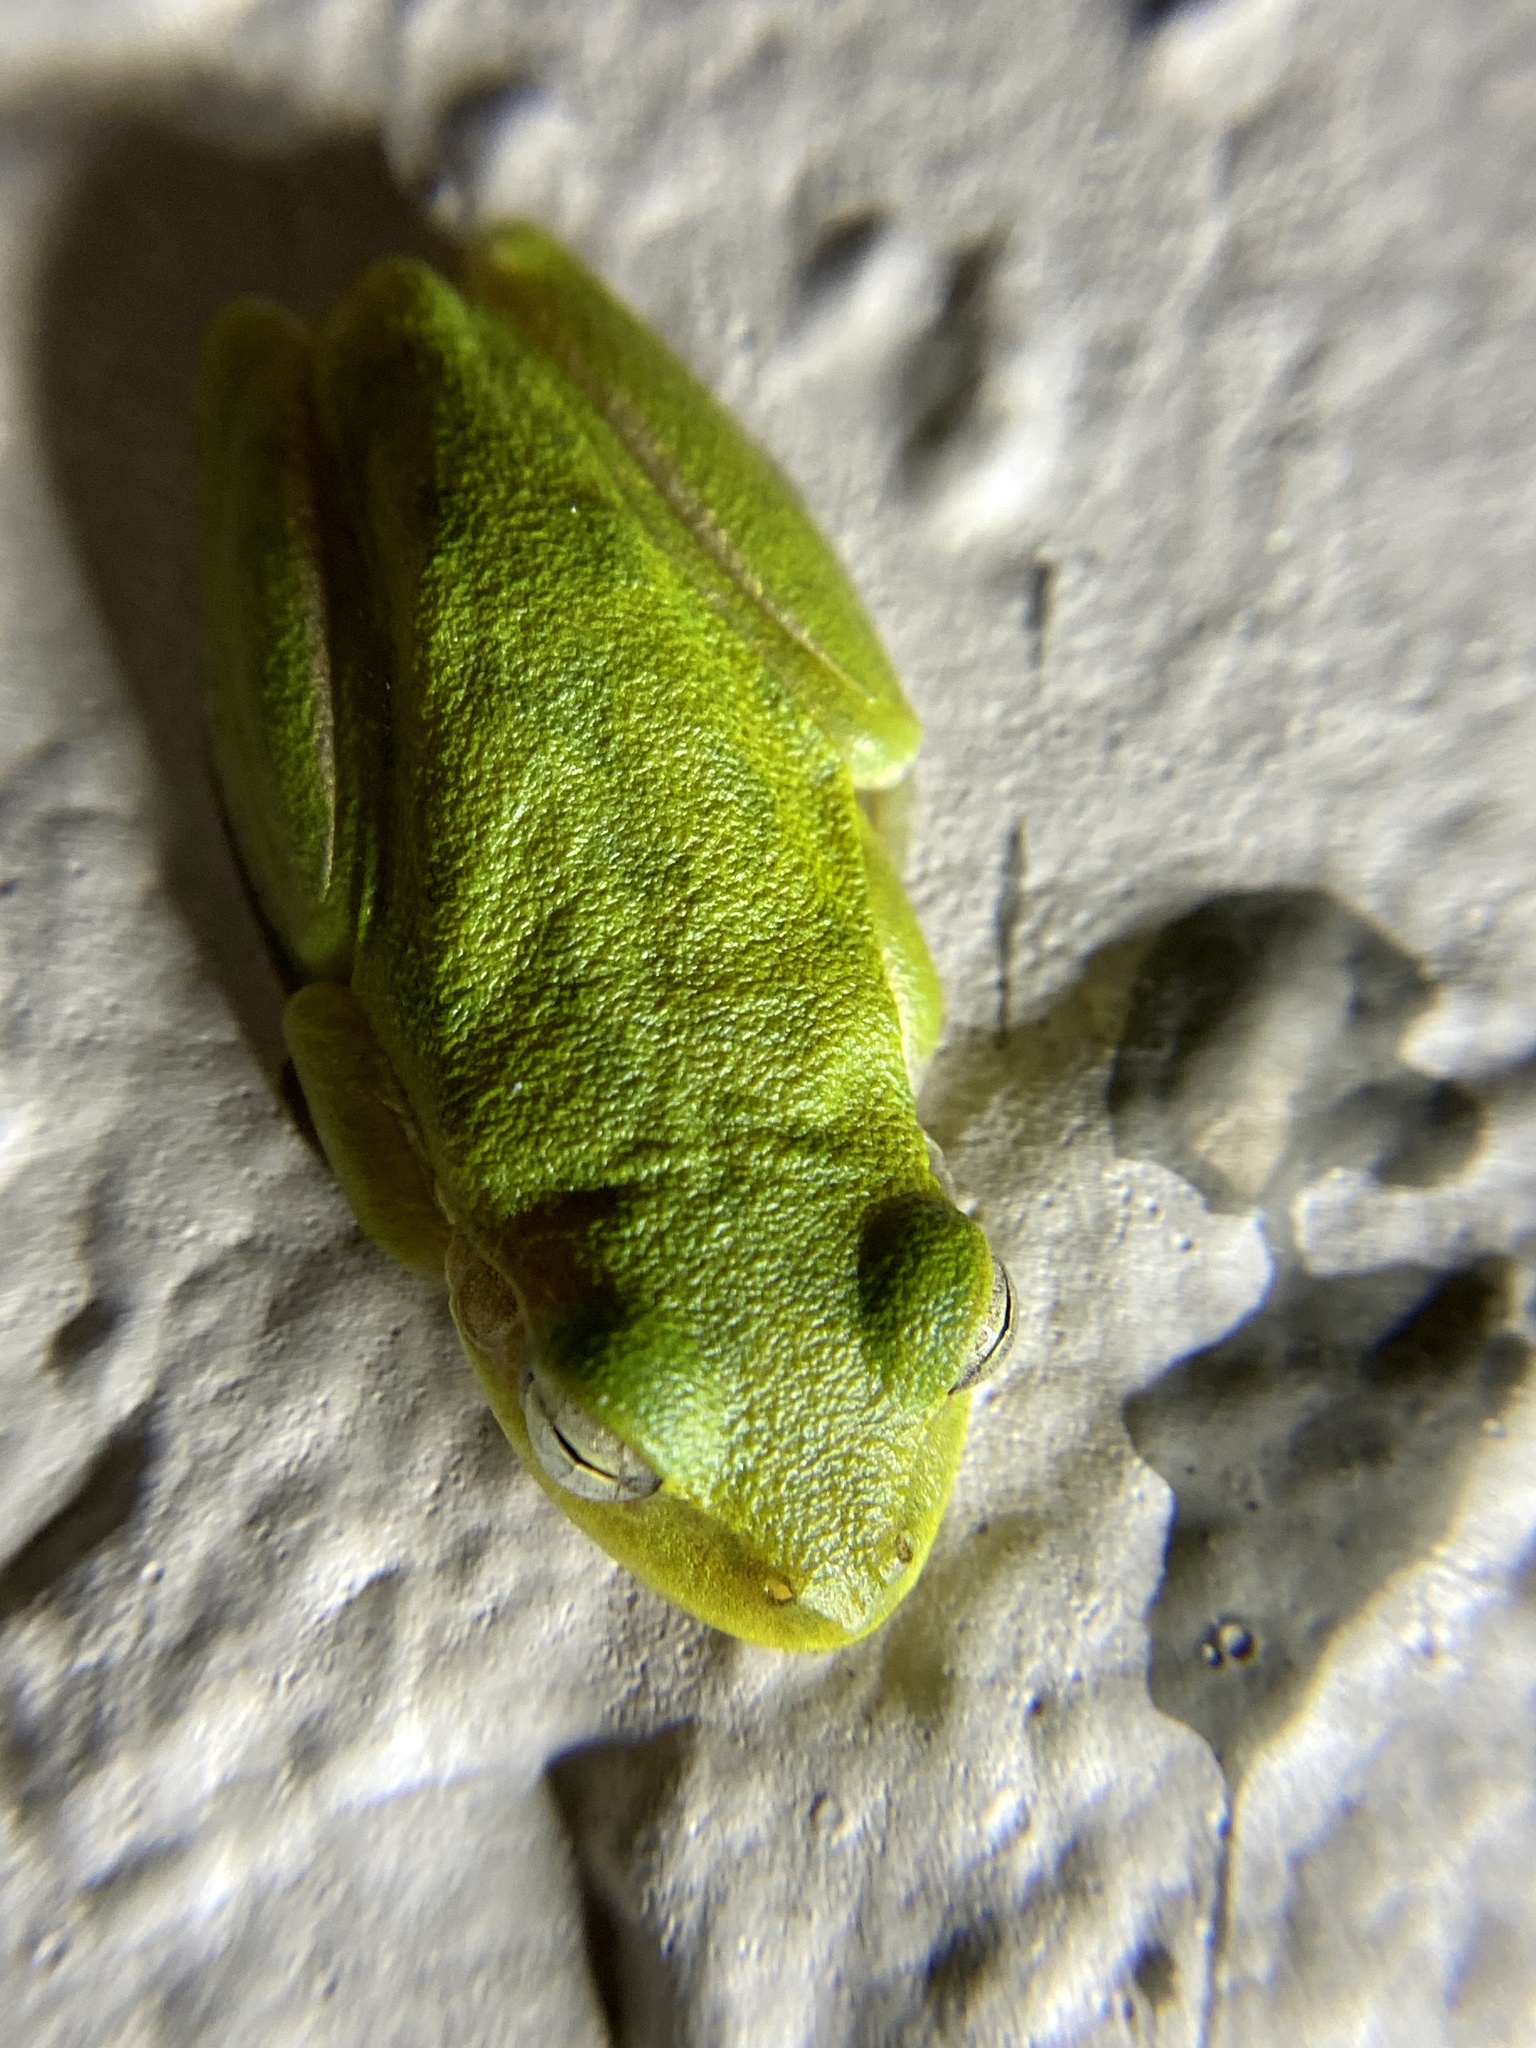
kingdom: Animalia
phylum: Chordata
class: Amphibia
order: Anura
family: Hylidae
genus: Dryophytes
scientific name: Dryophytes squirellus
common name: Squirrel treefrog
